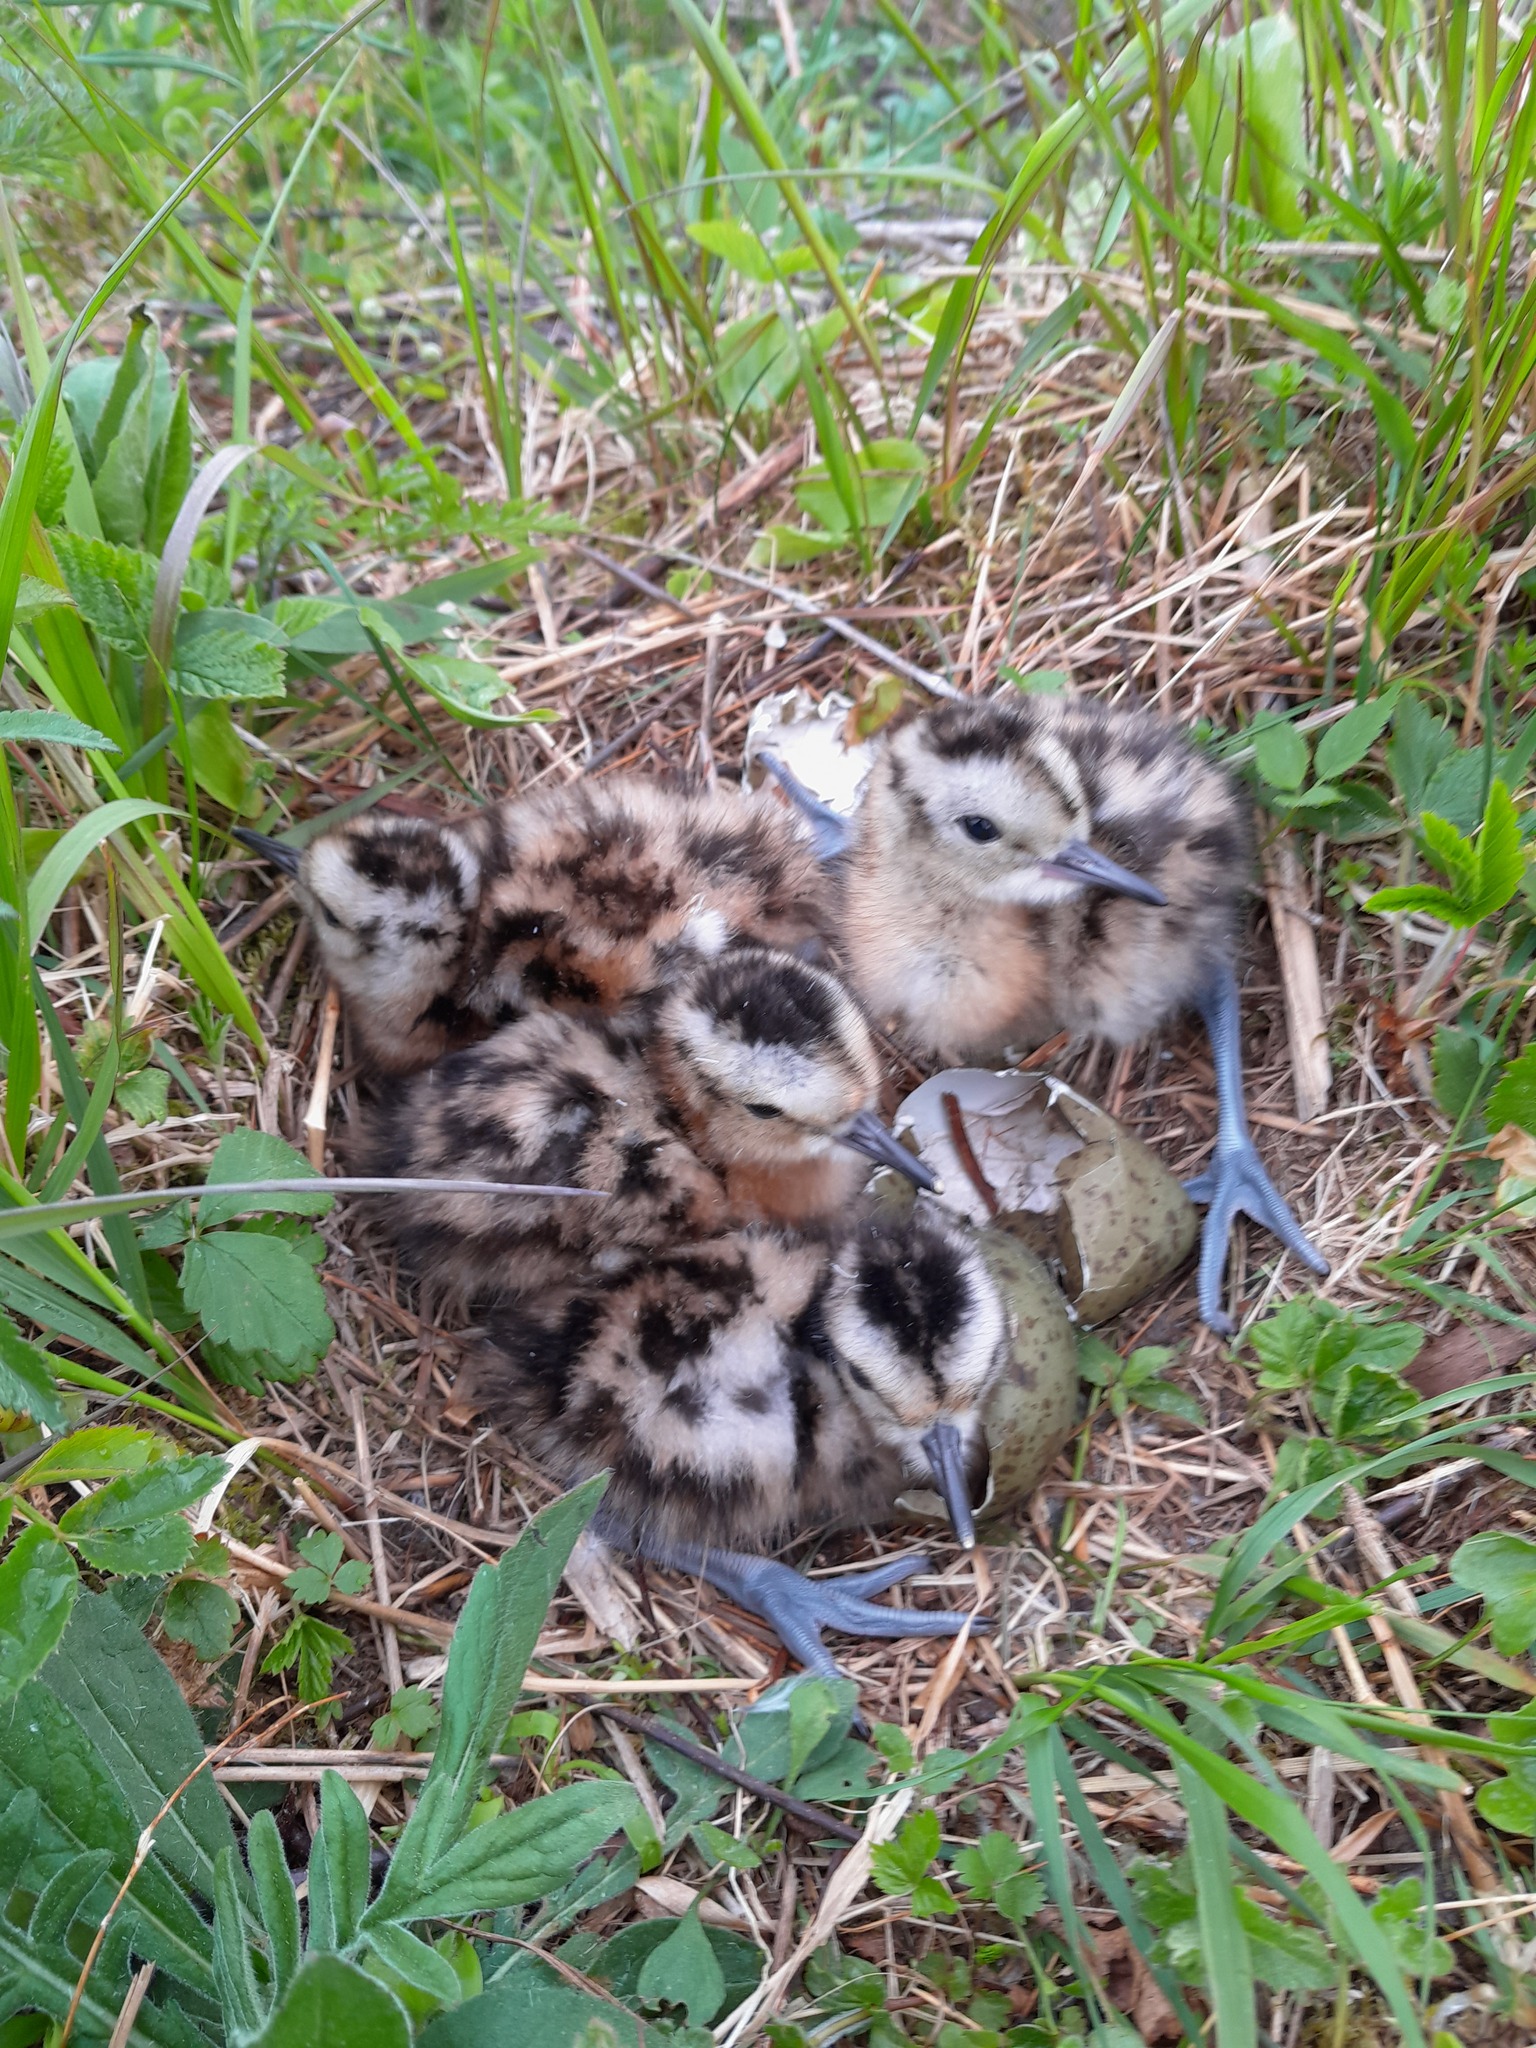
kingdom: Animalia
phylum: Chordata
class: Aves
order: Charadriiformes
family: Scolopacidae
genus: Numenius
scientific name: Numenius arquata
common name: Eurasian curlew
